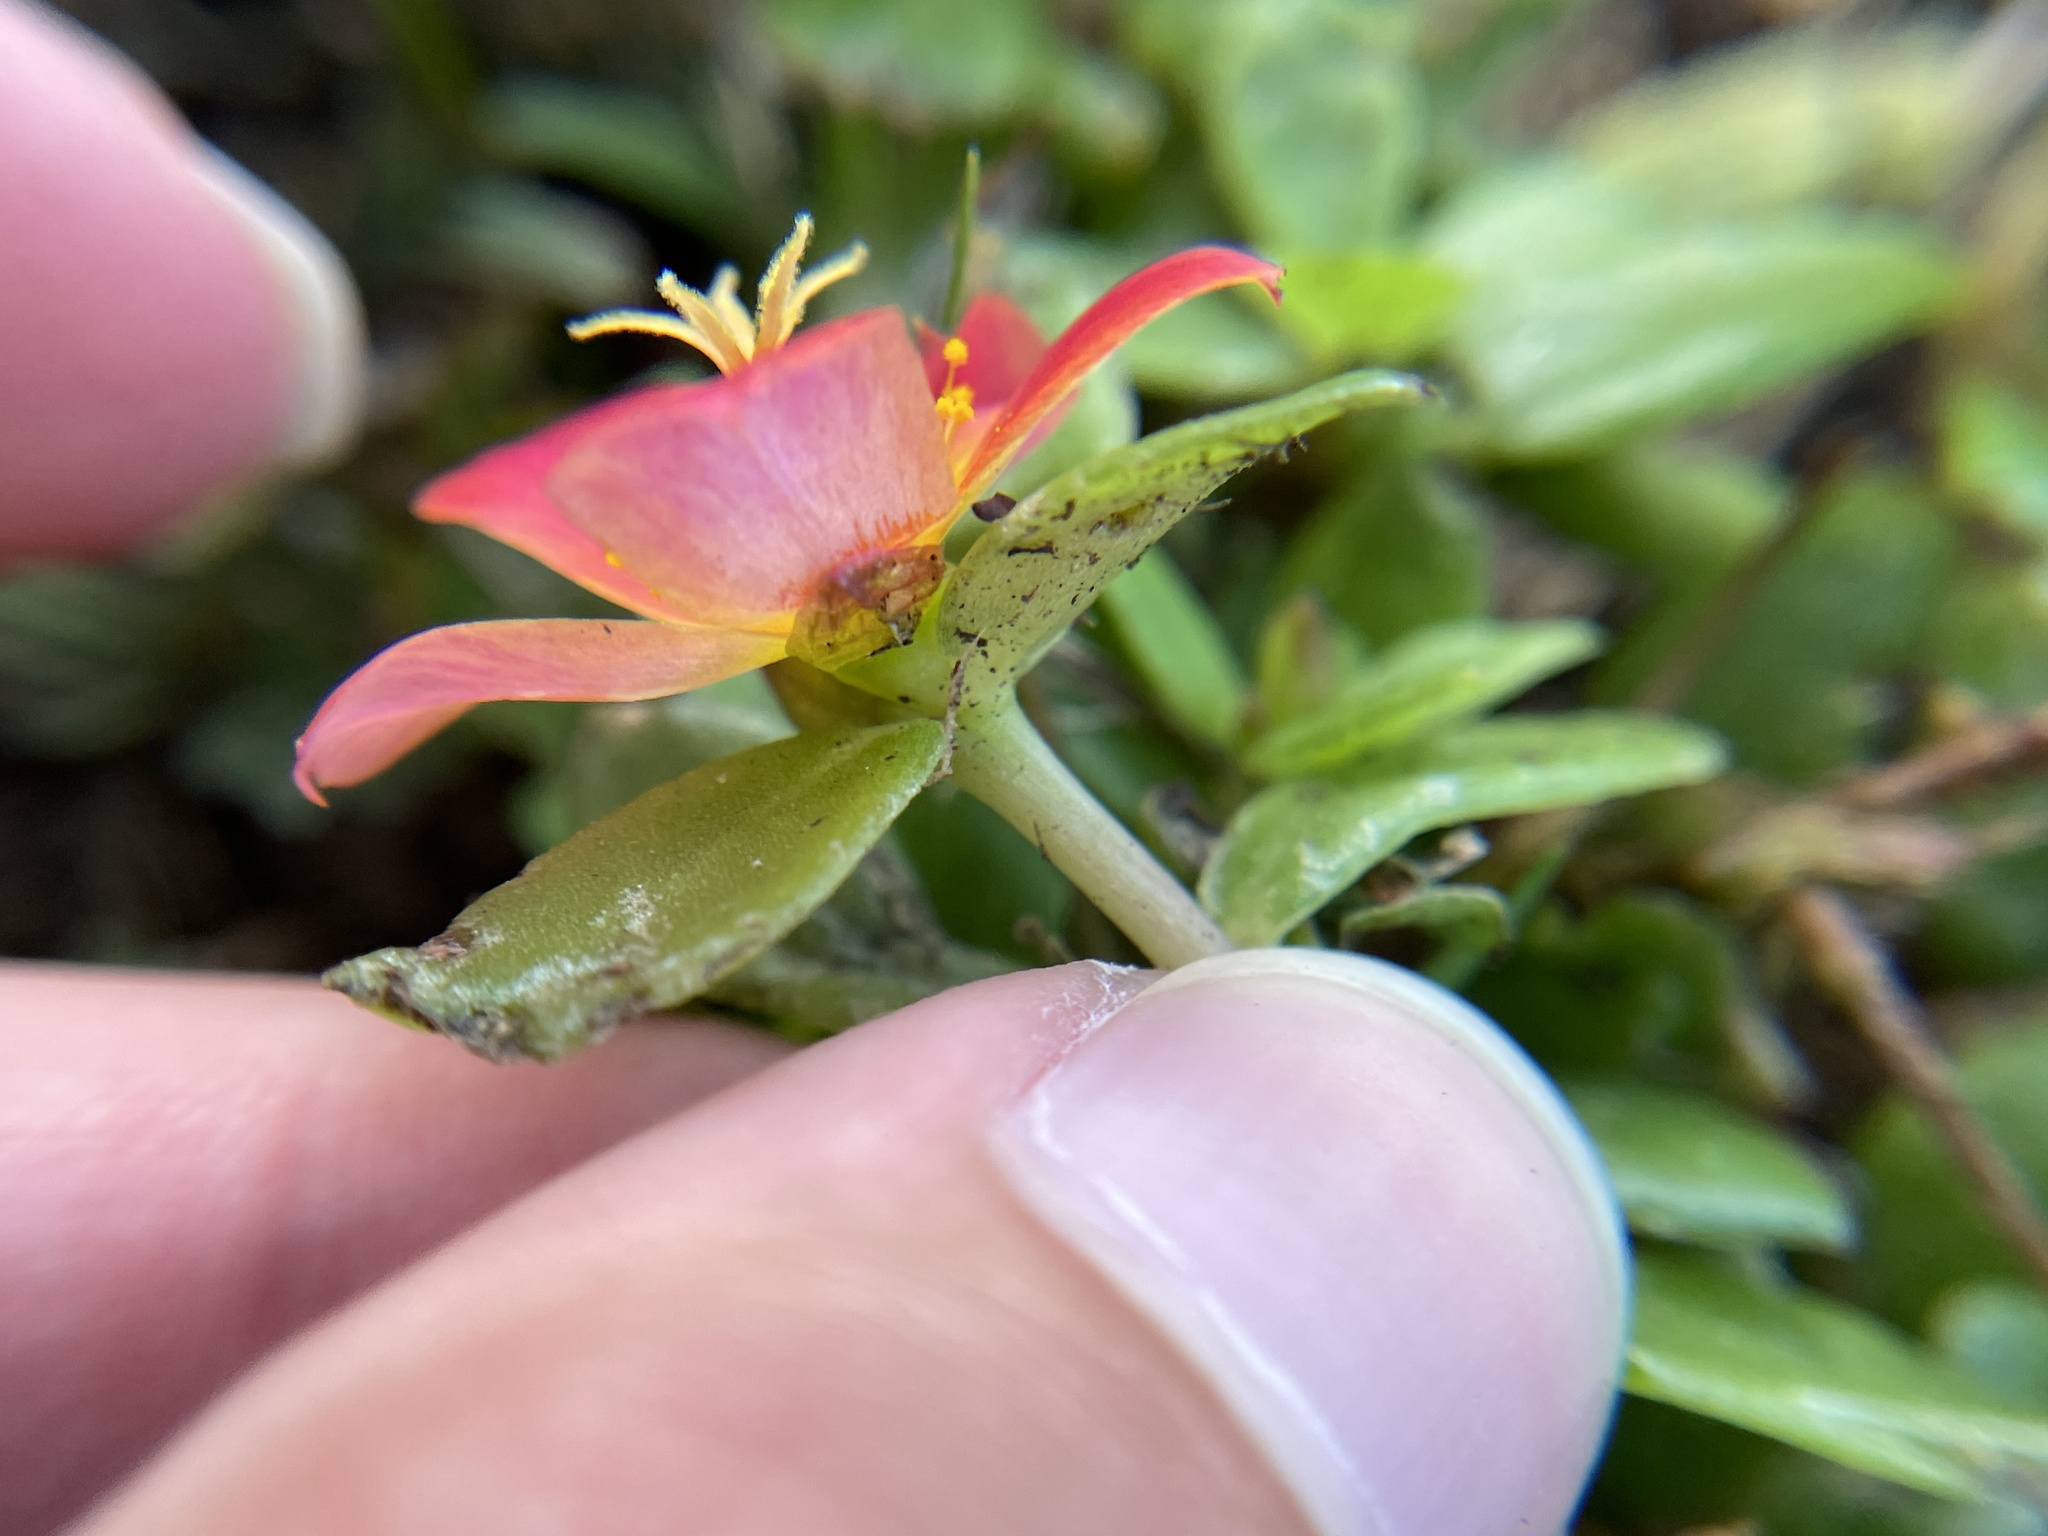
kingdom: Plantae
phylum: Tracheophyta
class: Magnoliopsida
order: Caryophyllales
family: Portulacaceae
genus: Portulaca
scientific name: Portulaca umbraticola
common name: Wingpod purslane
